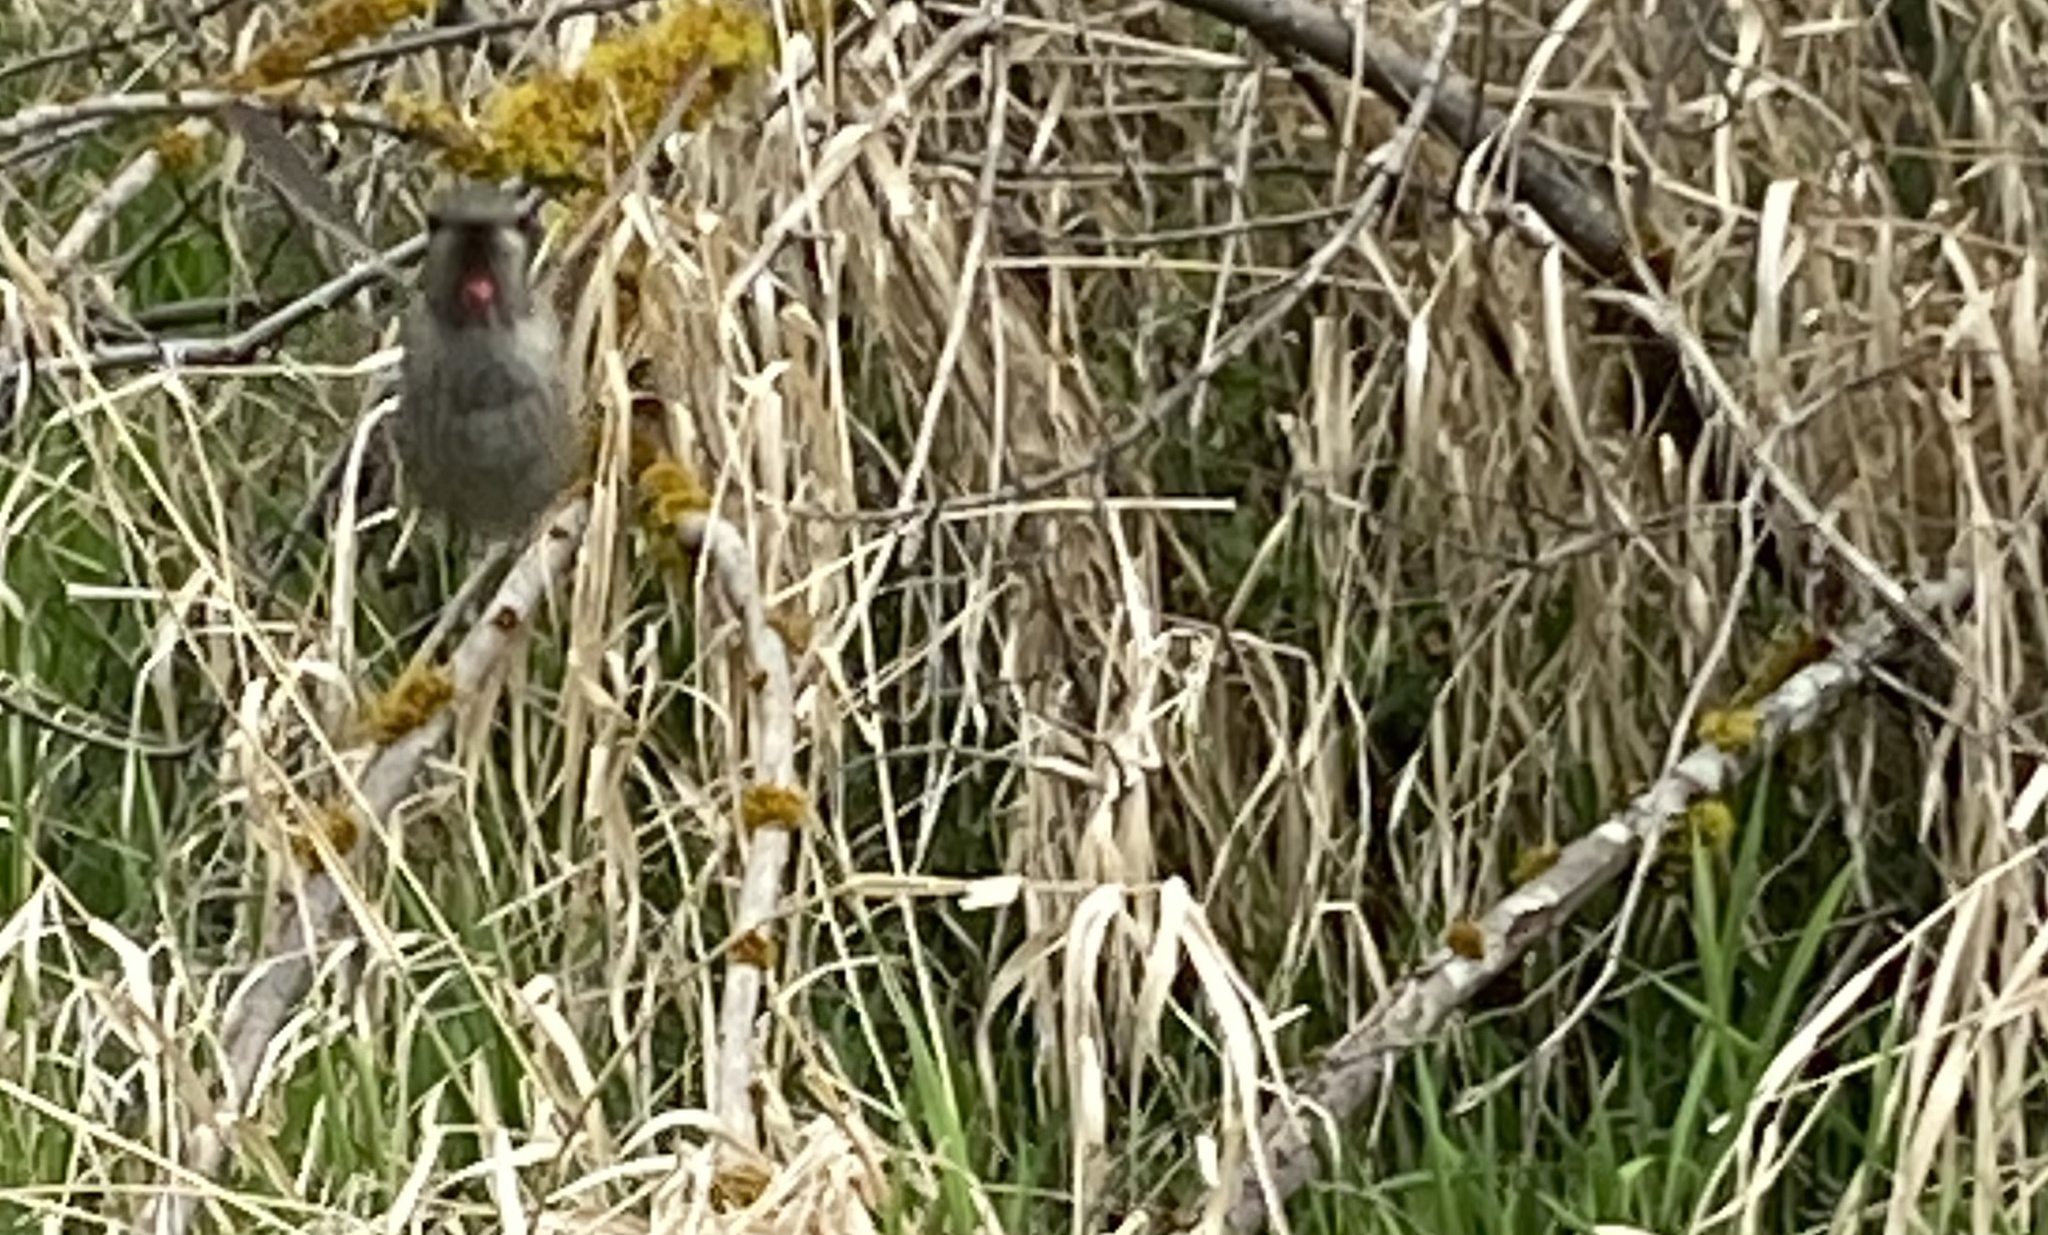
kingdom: Animalia
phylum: Chordata
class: Aves
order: Apodiformes
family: Trochilidae
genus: Calypte
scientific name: Calypte anna
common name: Anna's hummingbird
